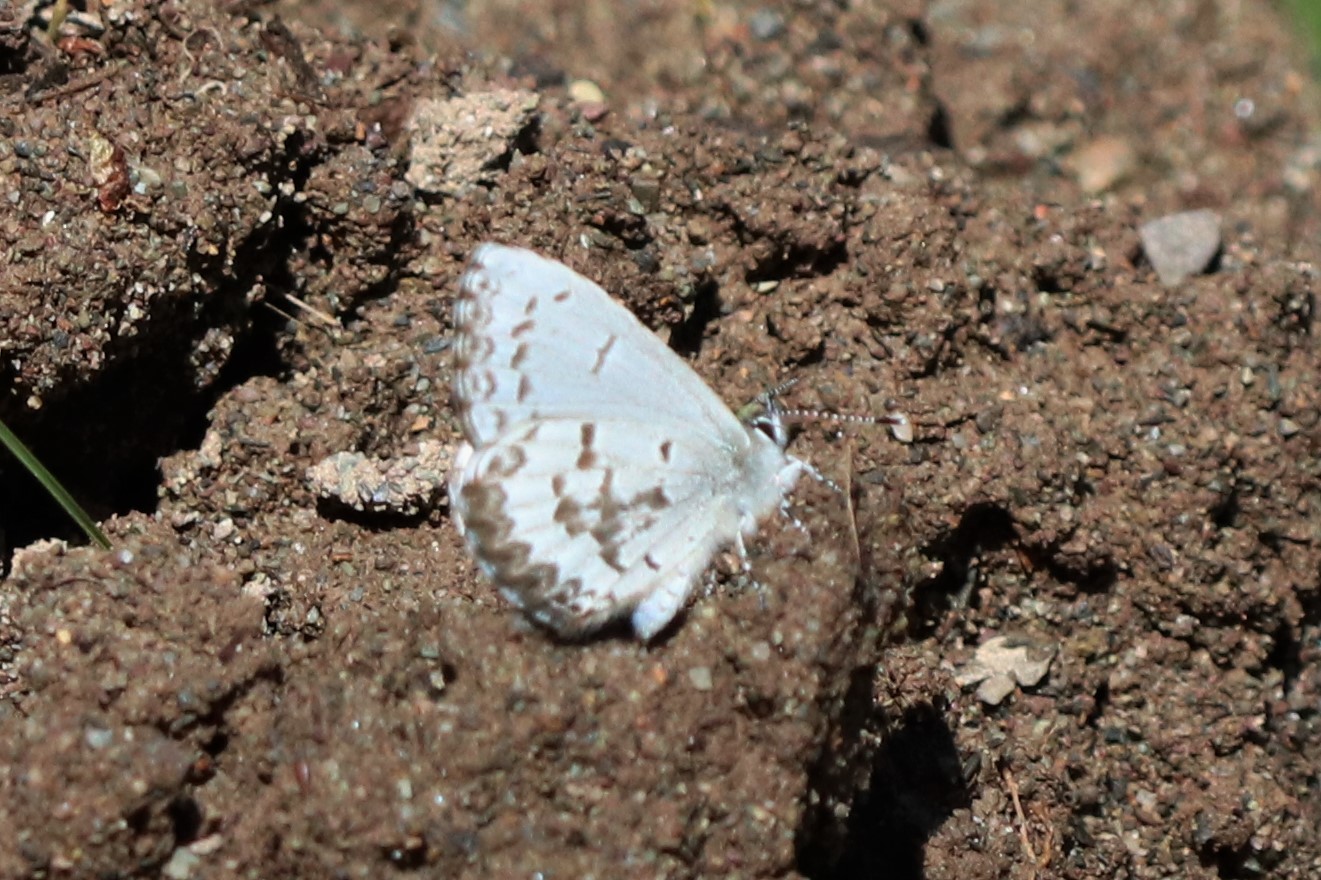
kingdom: Animalia
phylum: Arthropoda
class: Insecta
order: Lepidoptera
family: Lycaenidae
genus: Celastrina
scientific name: Celastrina lucia
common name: Lucia azure
